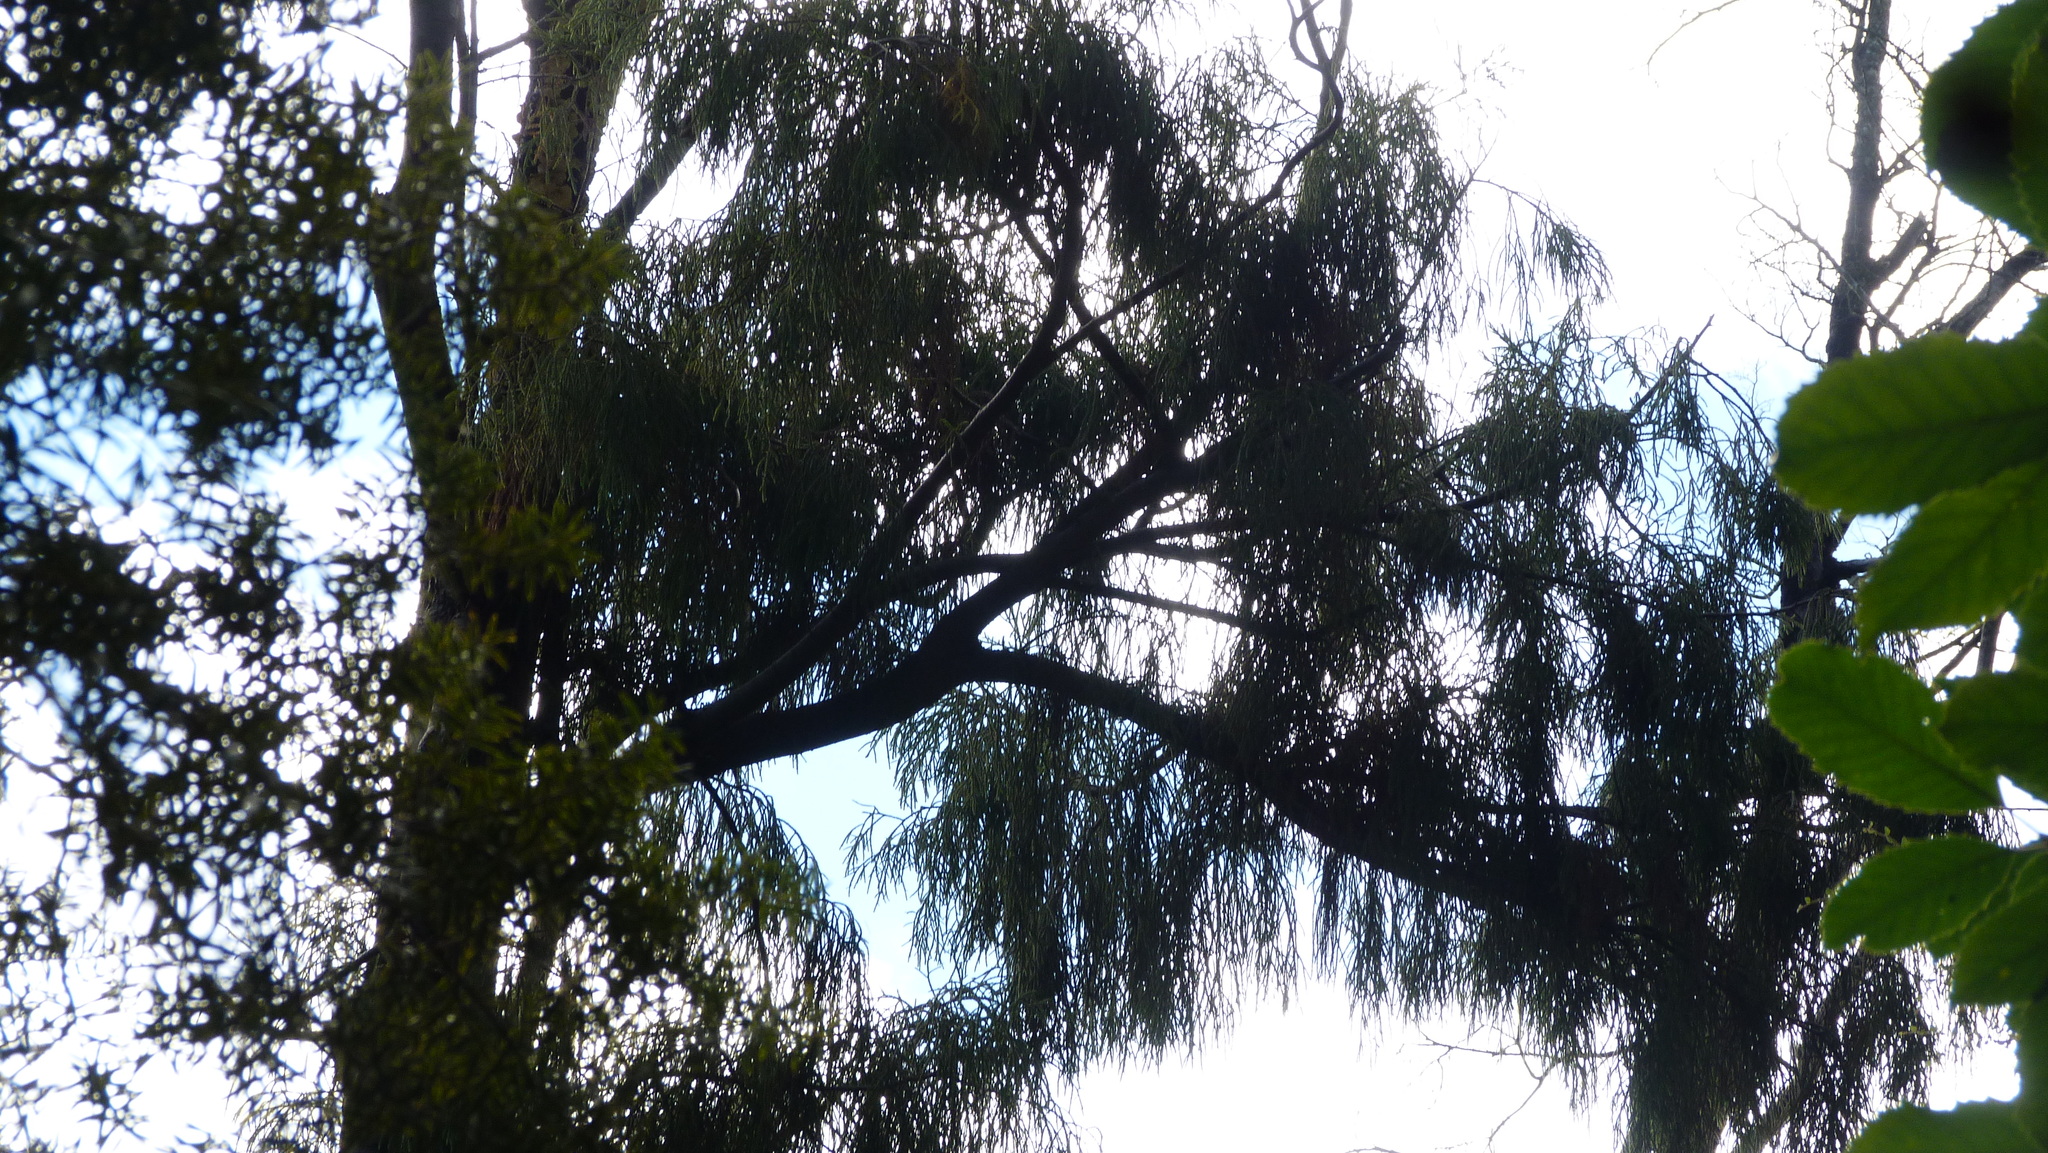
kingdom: Plantae
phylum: Tracheophyta
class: Pinopsida
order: Pinales
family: Podocarpaceae
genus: Dacrydium
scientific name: Dacrydium cupressinum
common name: Red pine
